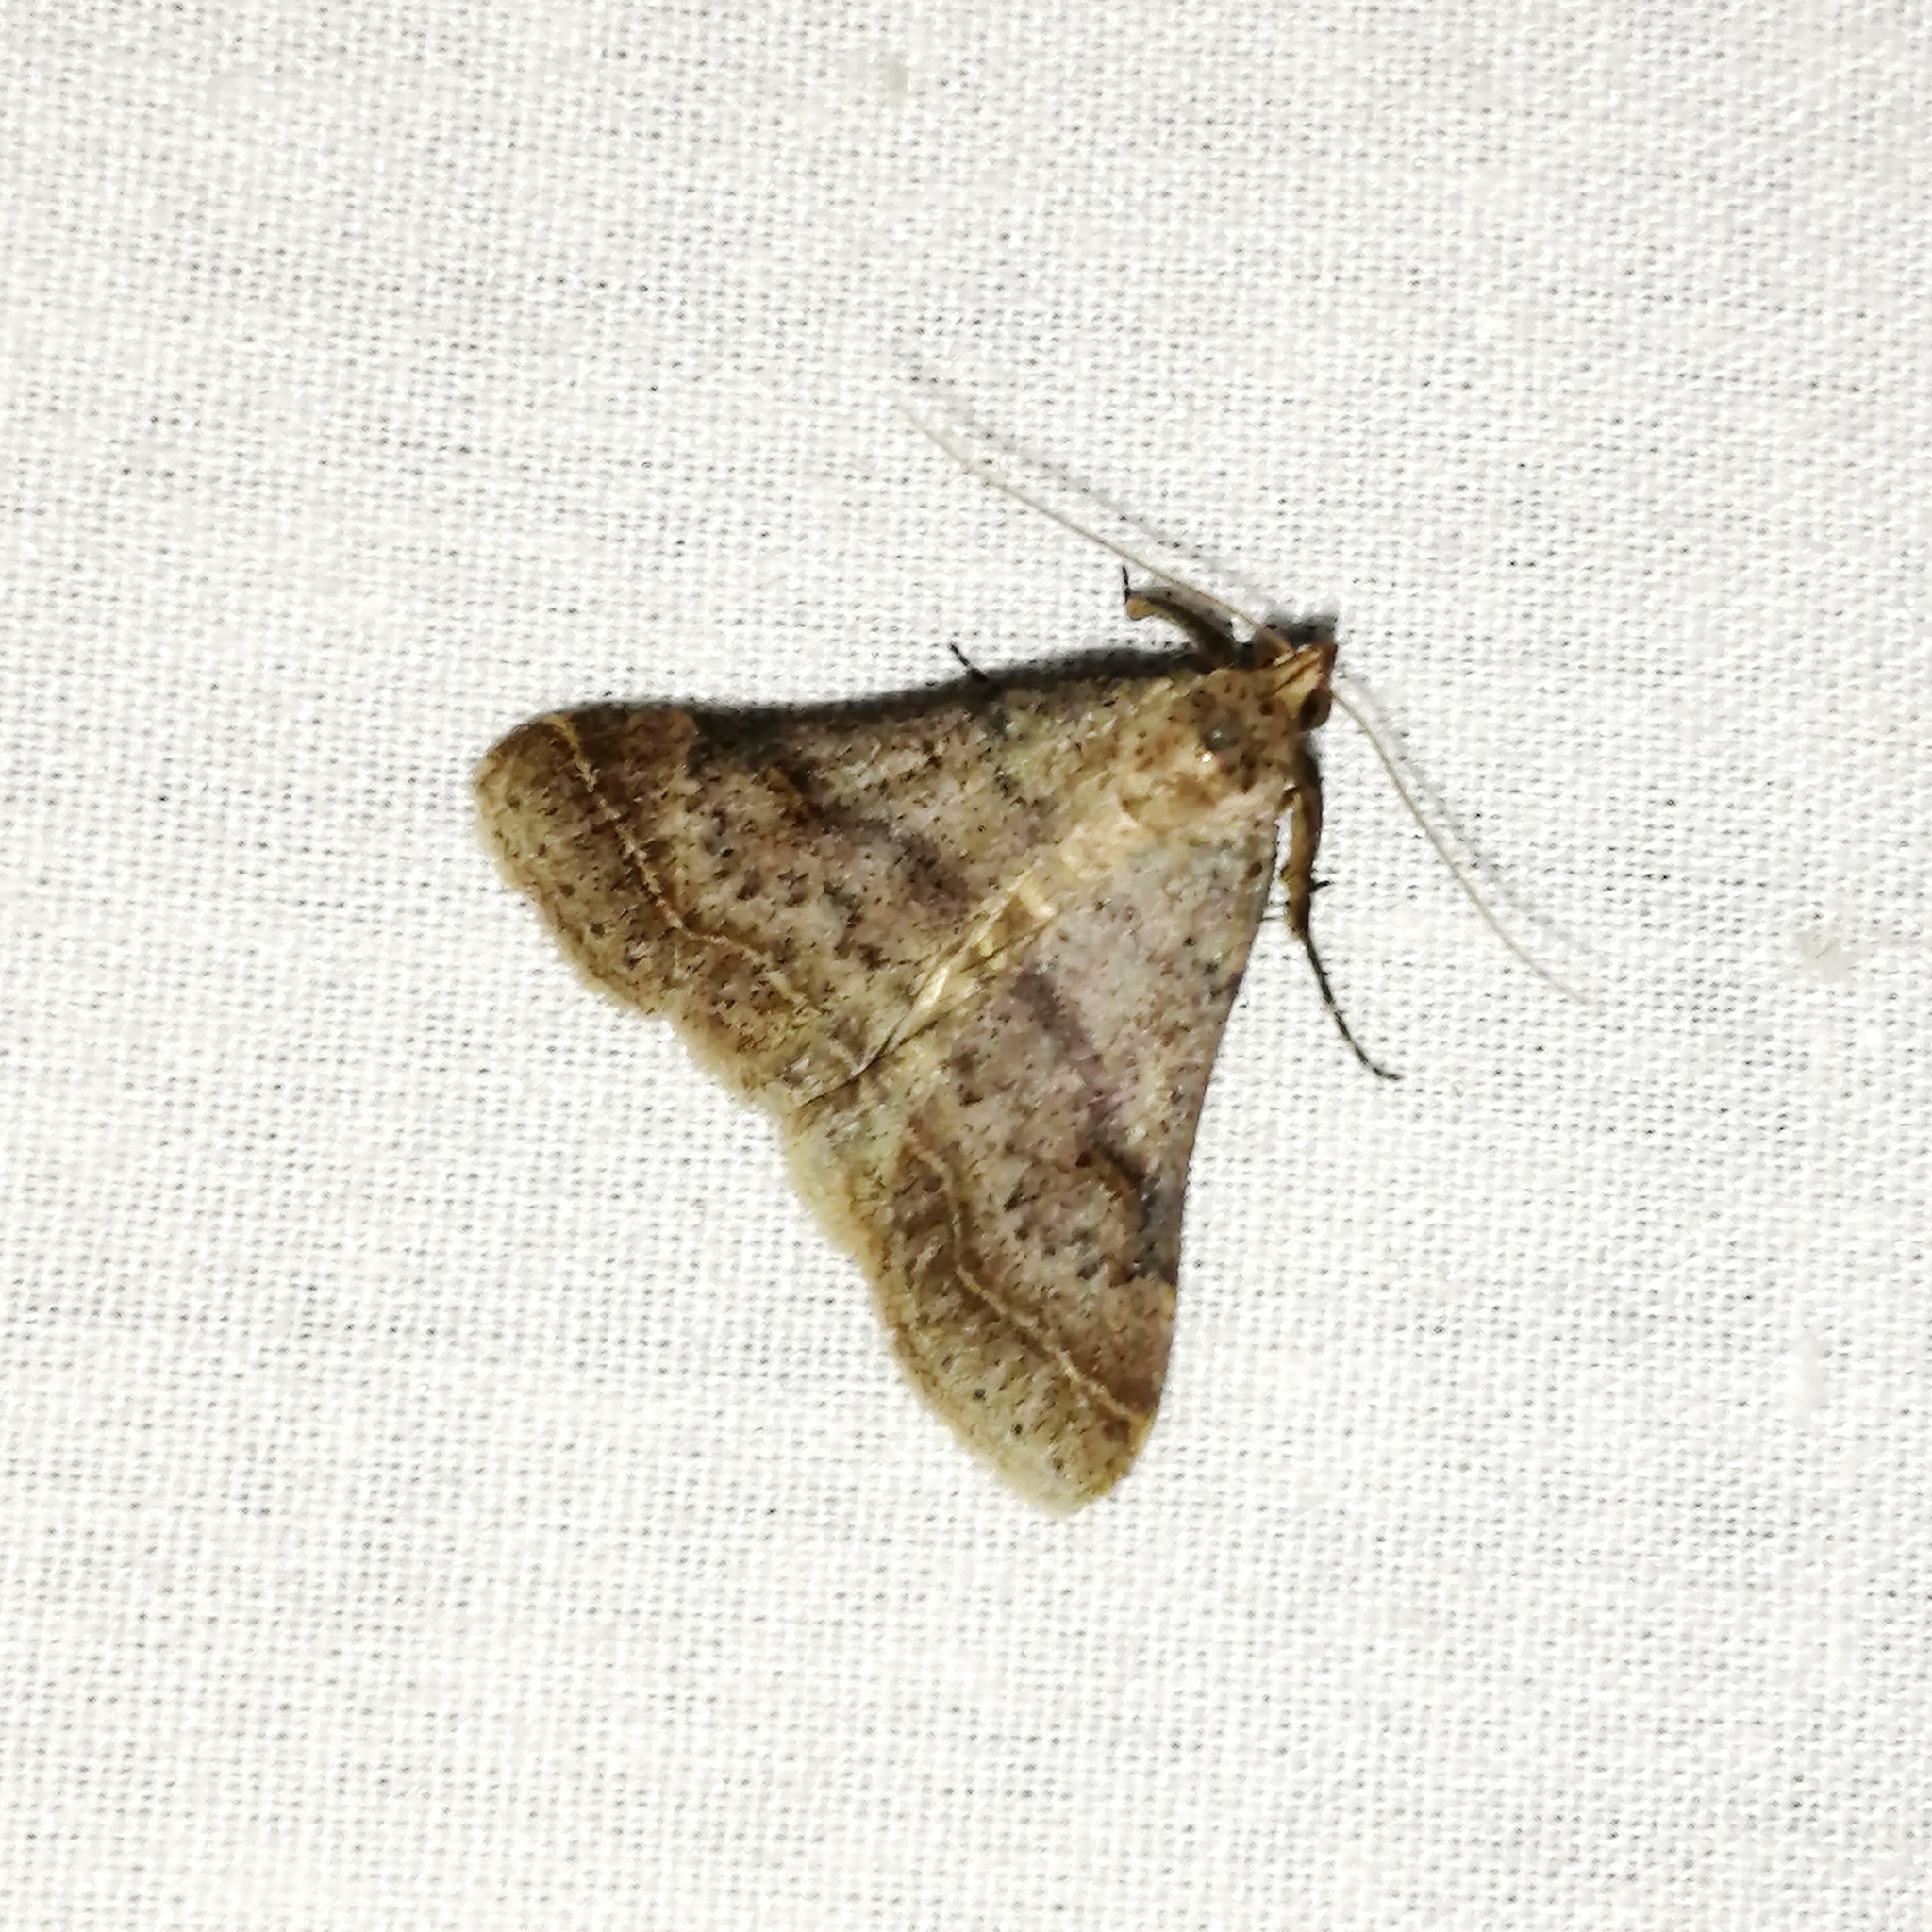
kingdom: Animalia
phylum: Arthropoda
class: Insecta
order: Lepidoptera
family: Erebidae
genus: Bleptina
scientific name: Bleptina caradrinalis
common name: Bent-winged owlet
